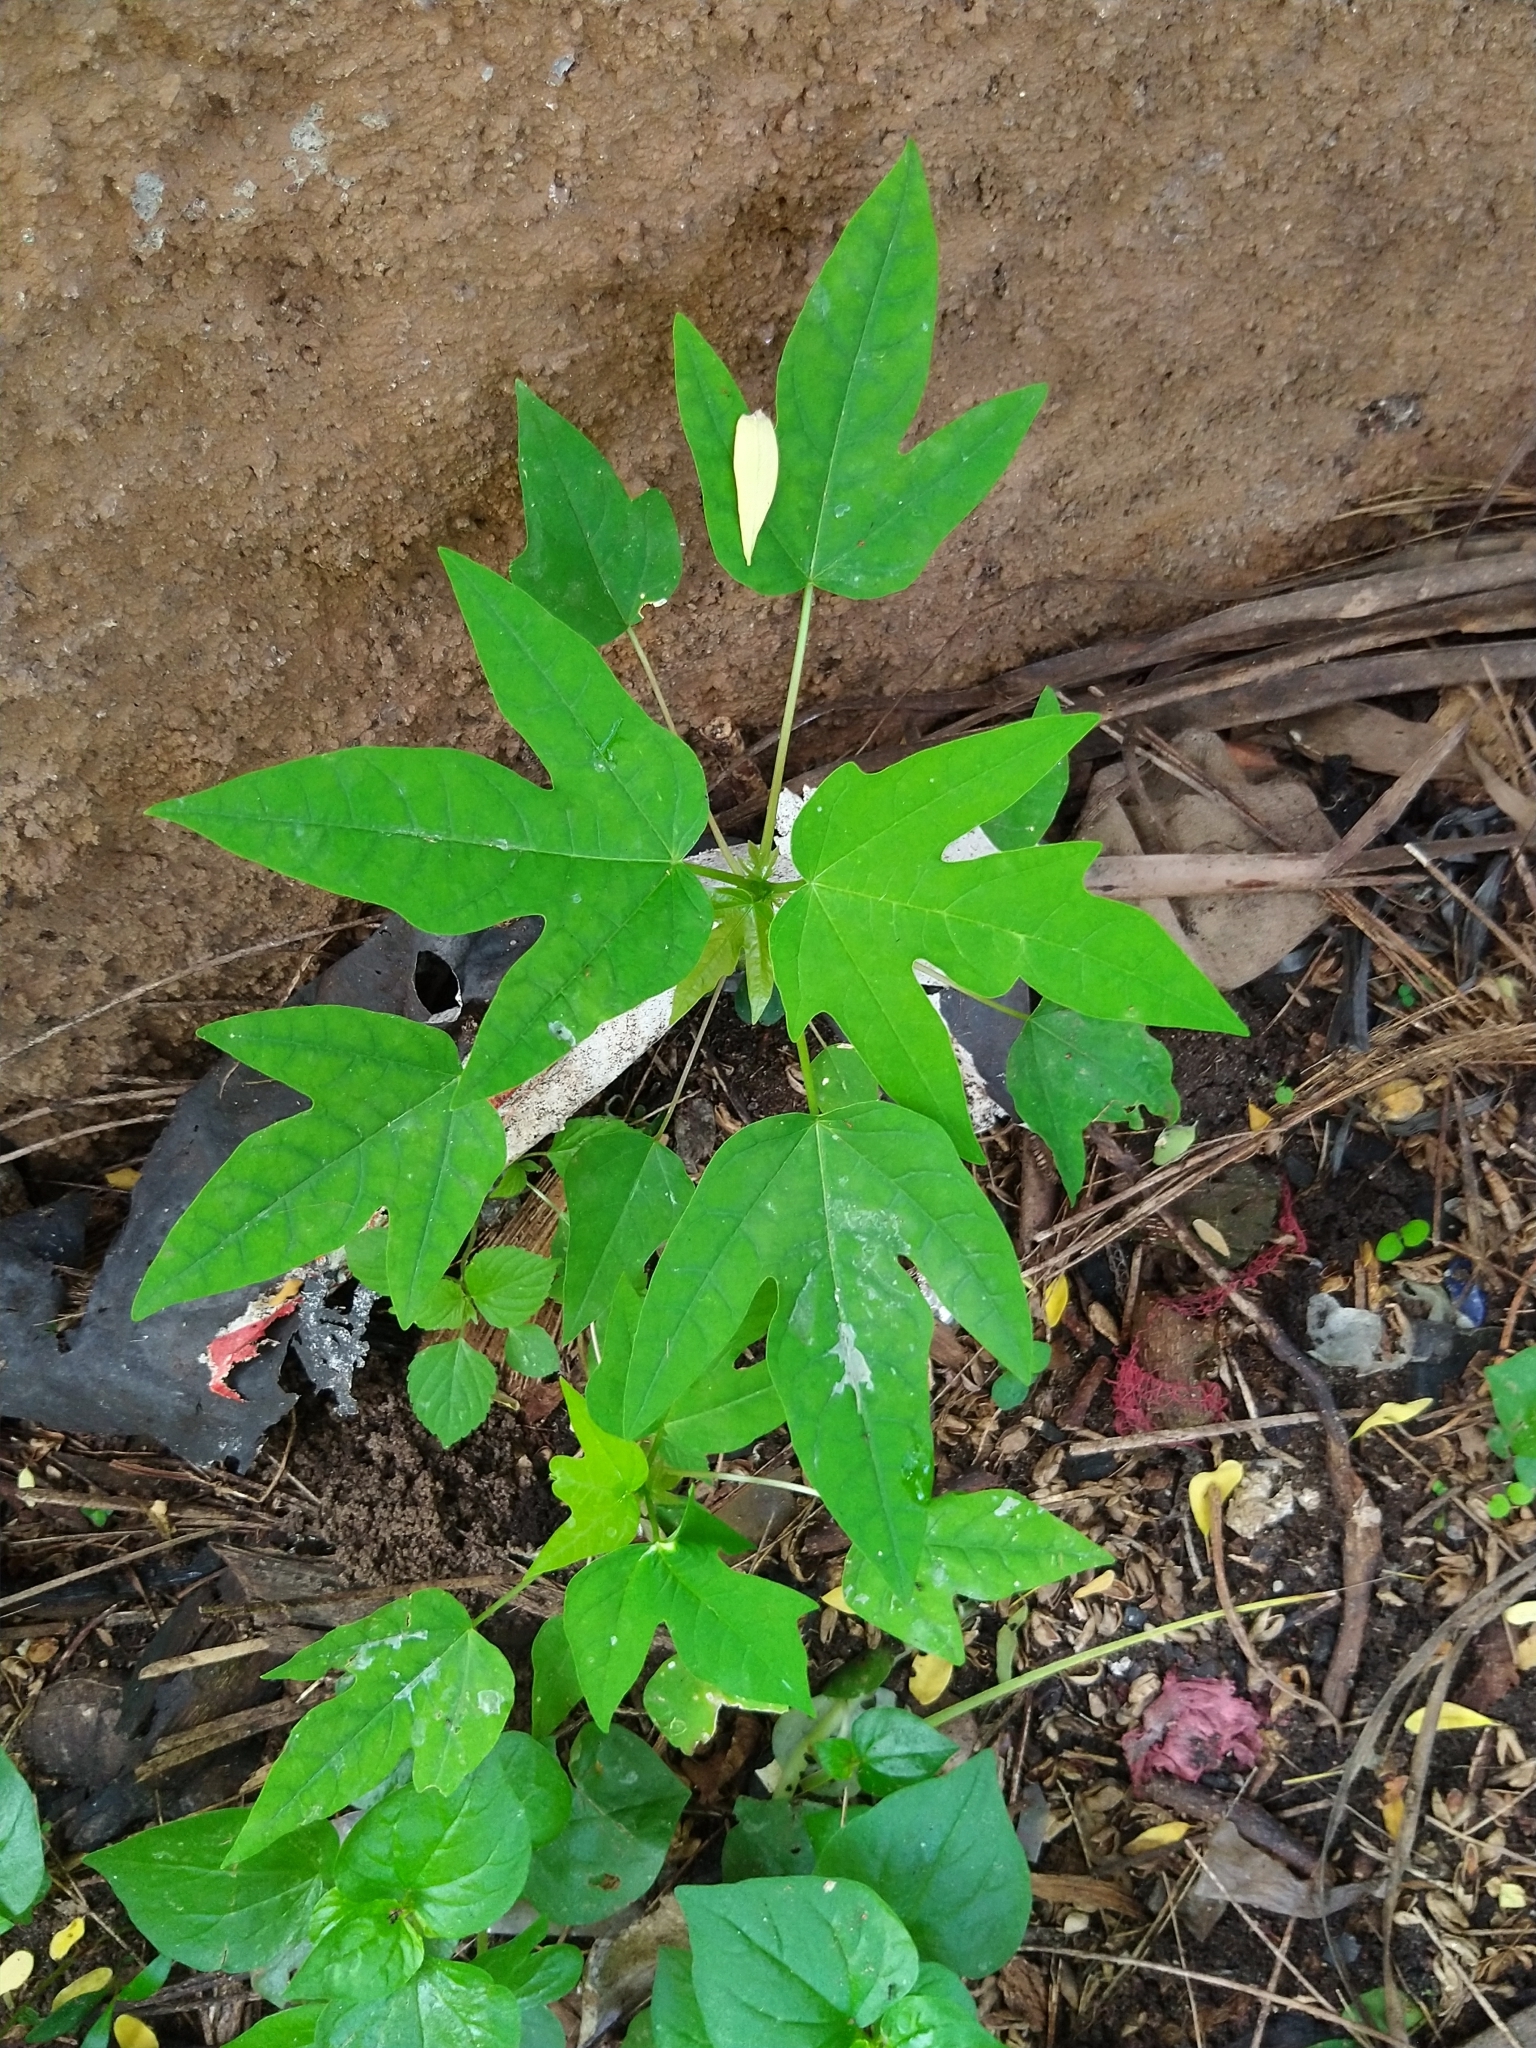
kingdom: Plantae
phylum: Tracheophyta
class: Magnoliopsida
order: Brassicales
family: Caricaceae
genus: Carica
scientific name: Carica papaya
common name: Papaya
